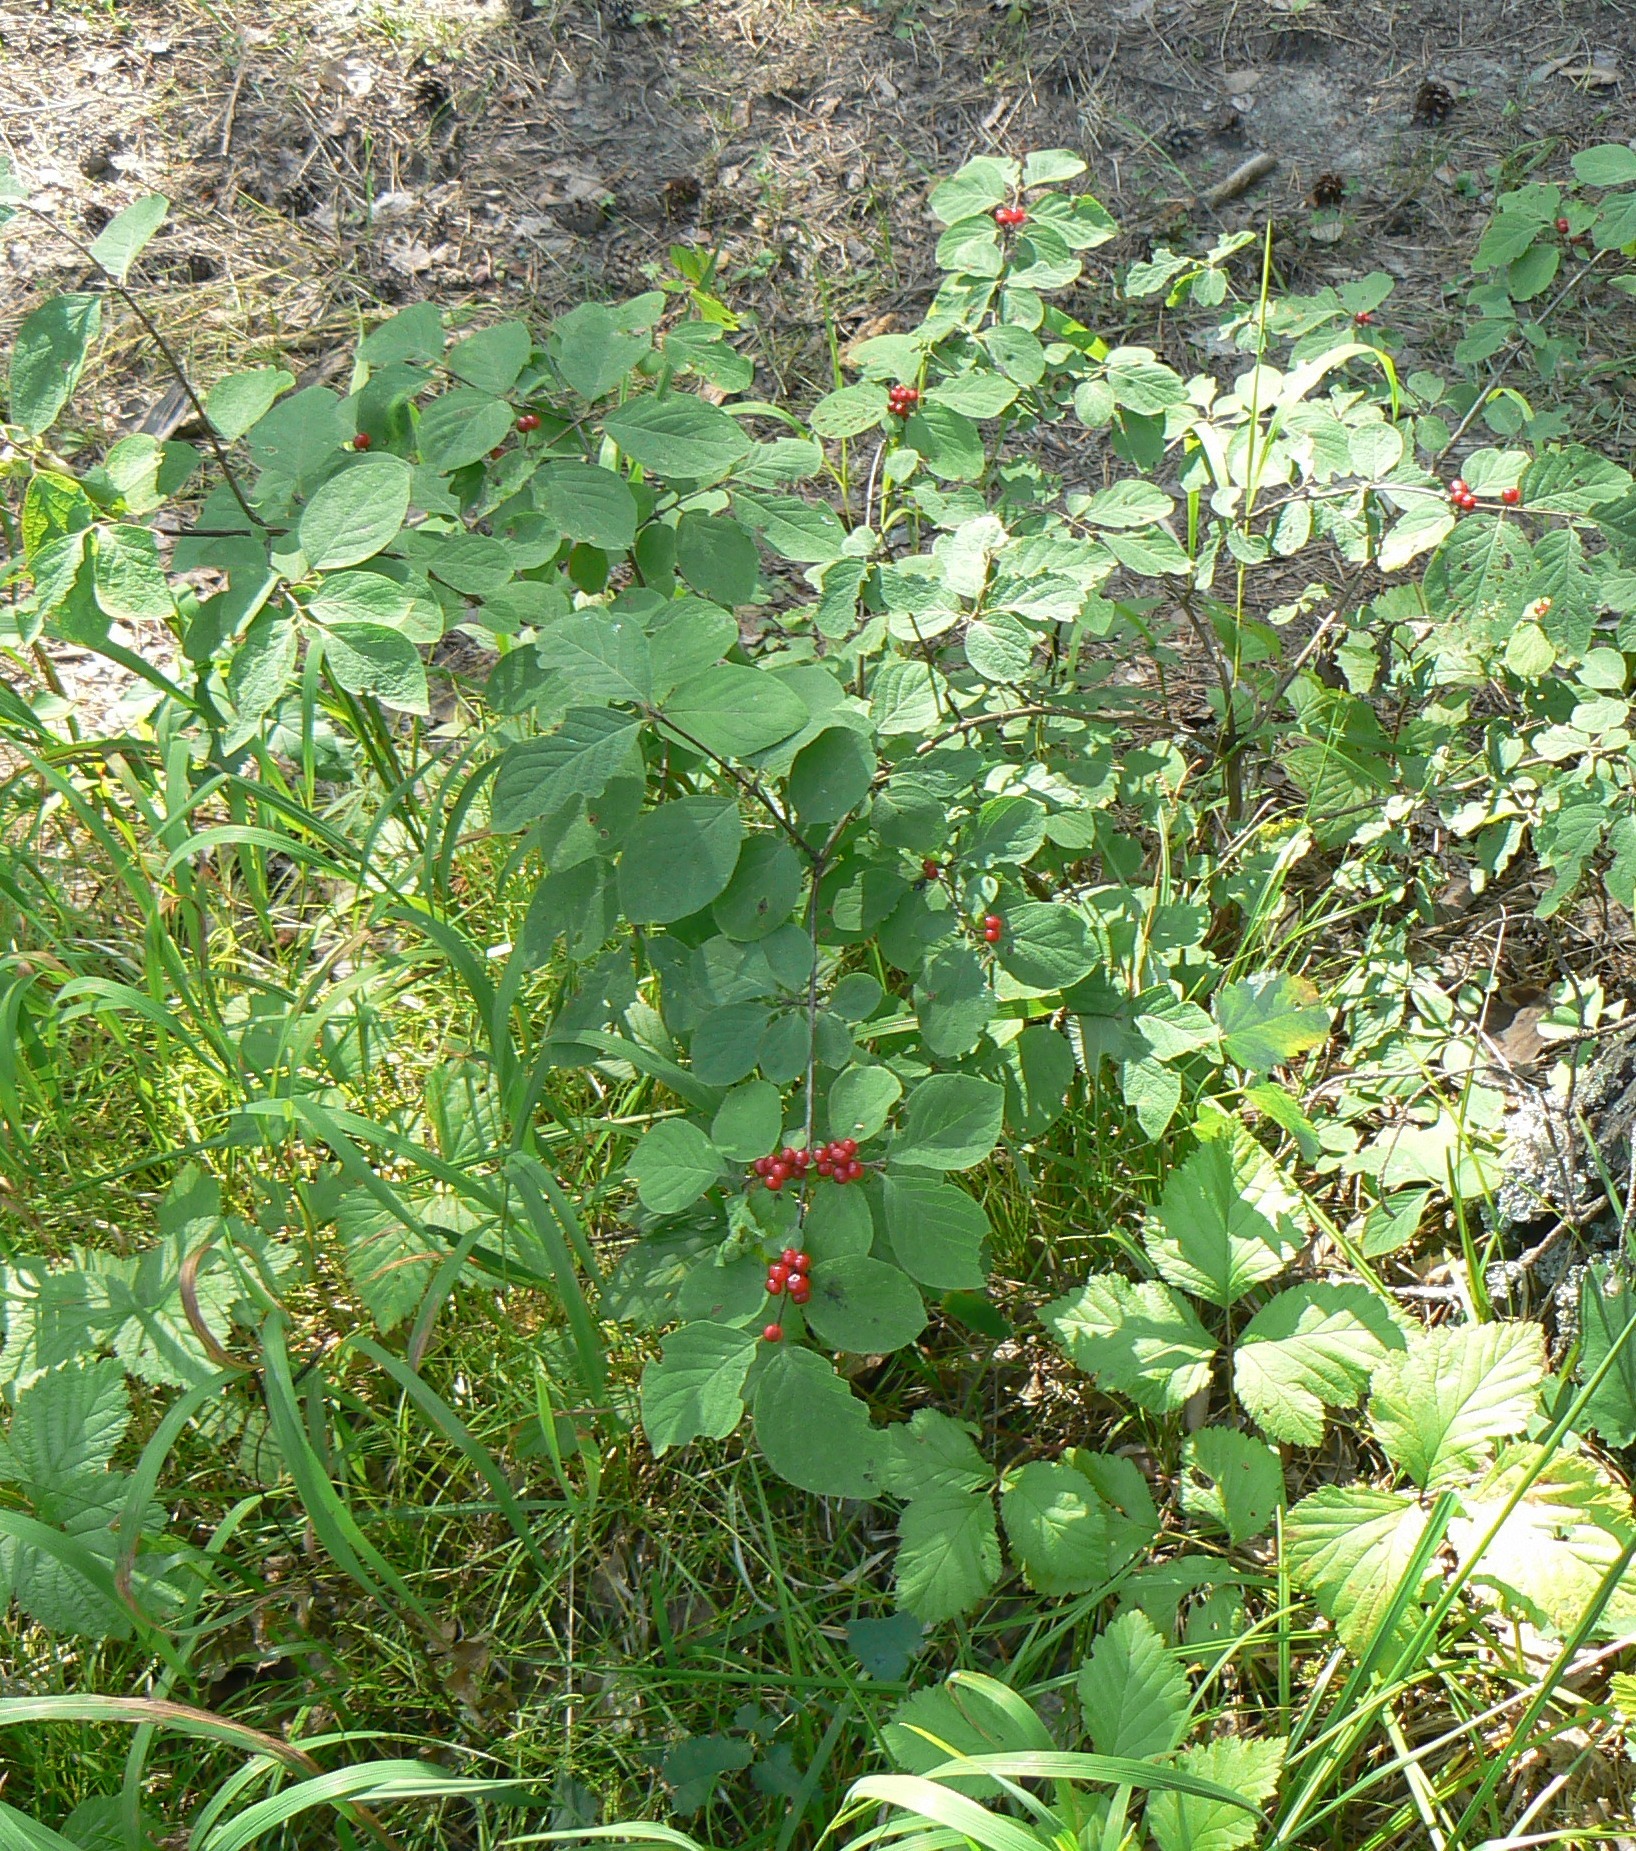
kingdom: Plantae
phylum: Tracheophyta
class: Magnoliopsida
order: Dipsacales
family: Caprifoliaceae
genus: Lonicera
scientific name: Lonicera xylosteum
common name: Fly honeysuckle
